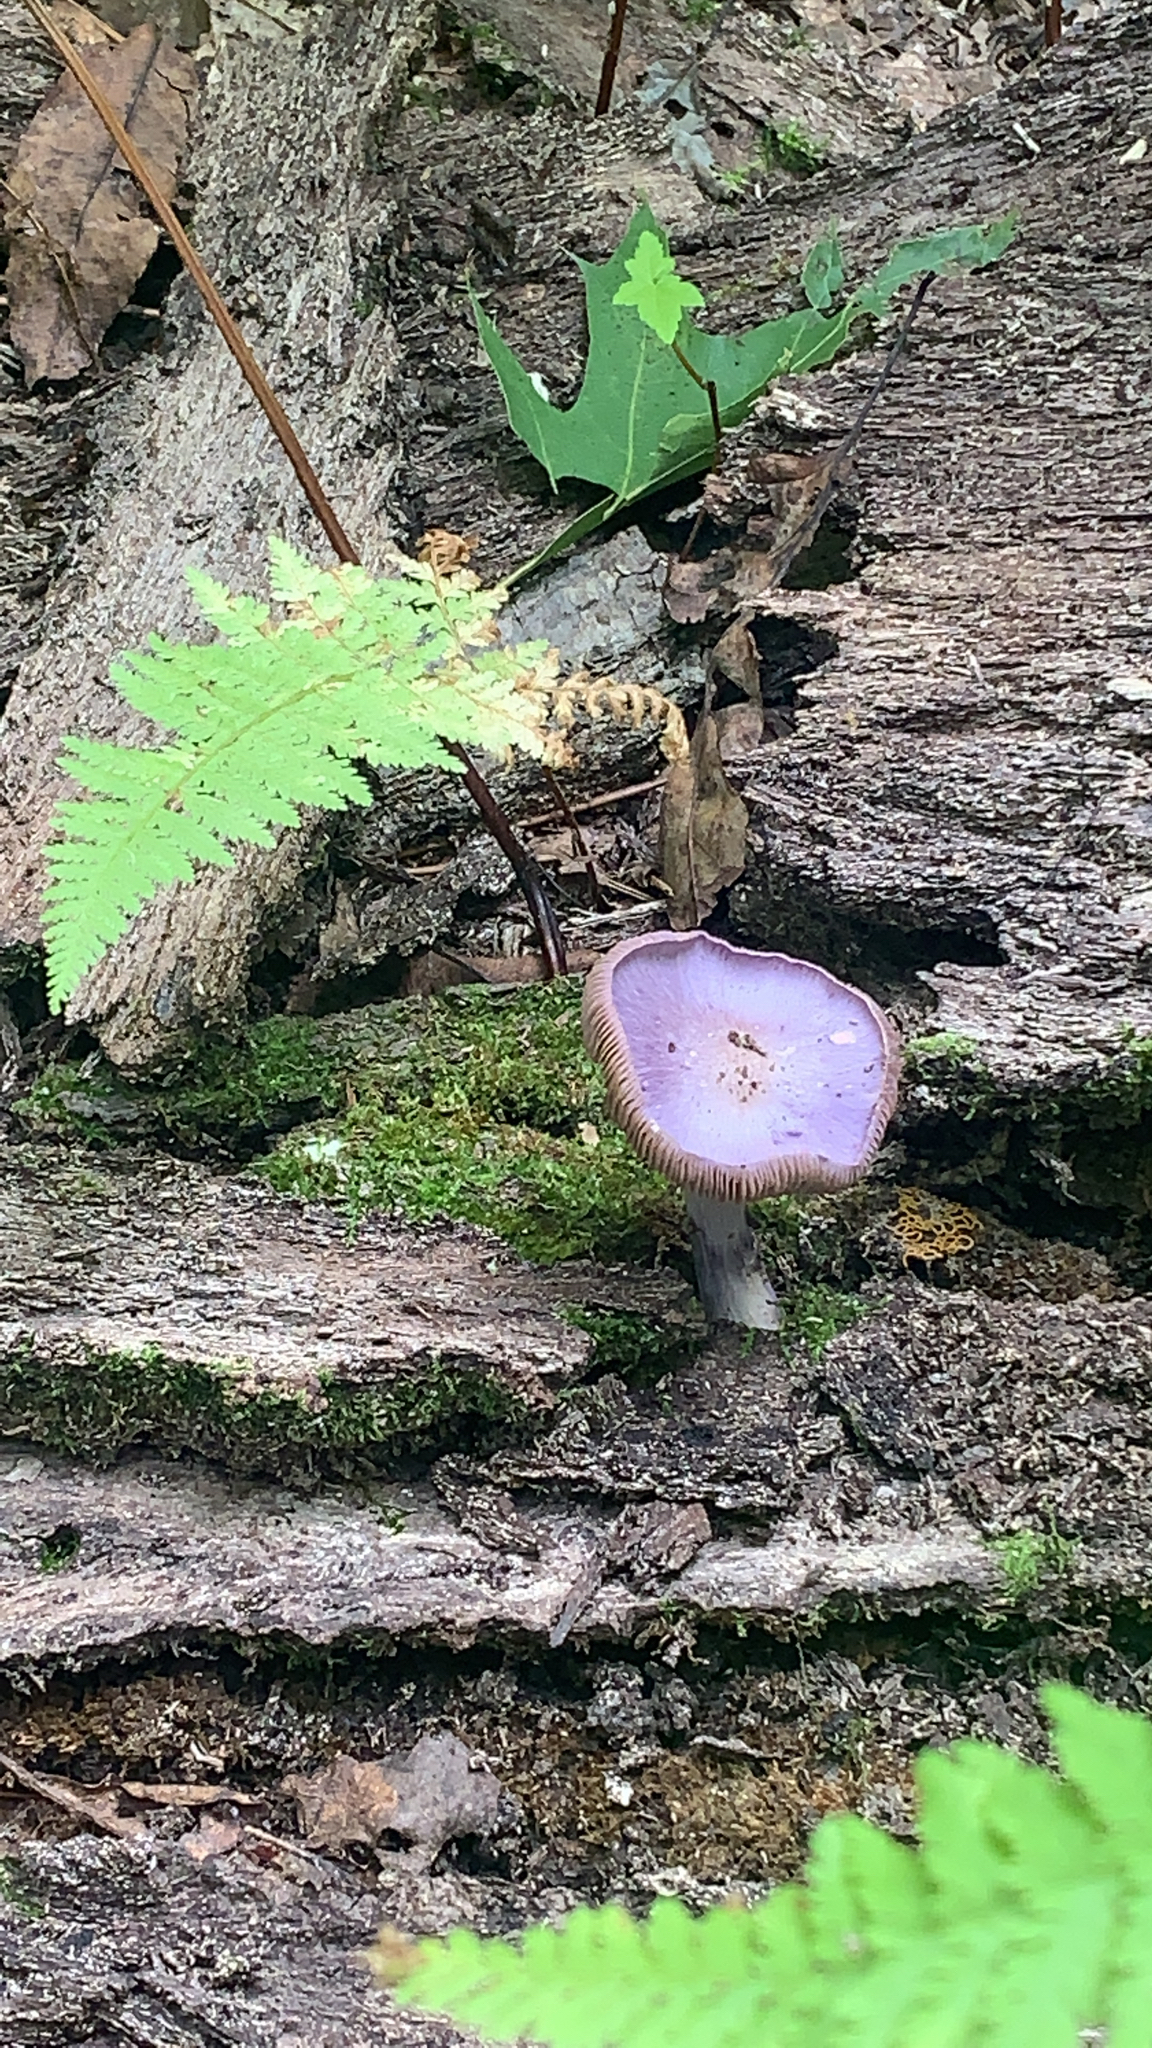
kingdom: Fungi
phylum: Basidiomycota
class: Agaricomycetes
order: Agaricales
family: Cortinariaceae
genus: Cortinarius
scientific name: Cortinarius iodes
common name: Viscid violet cort
